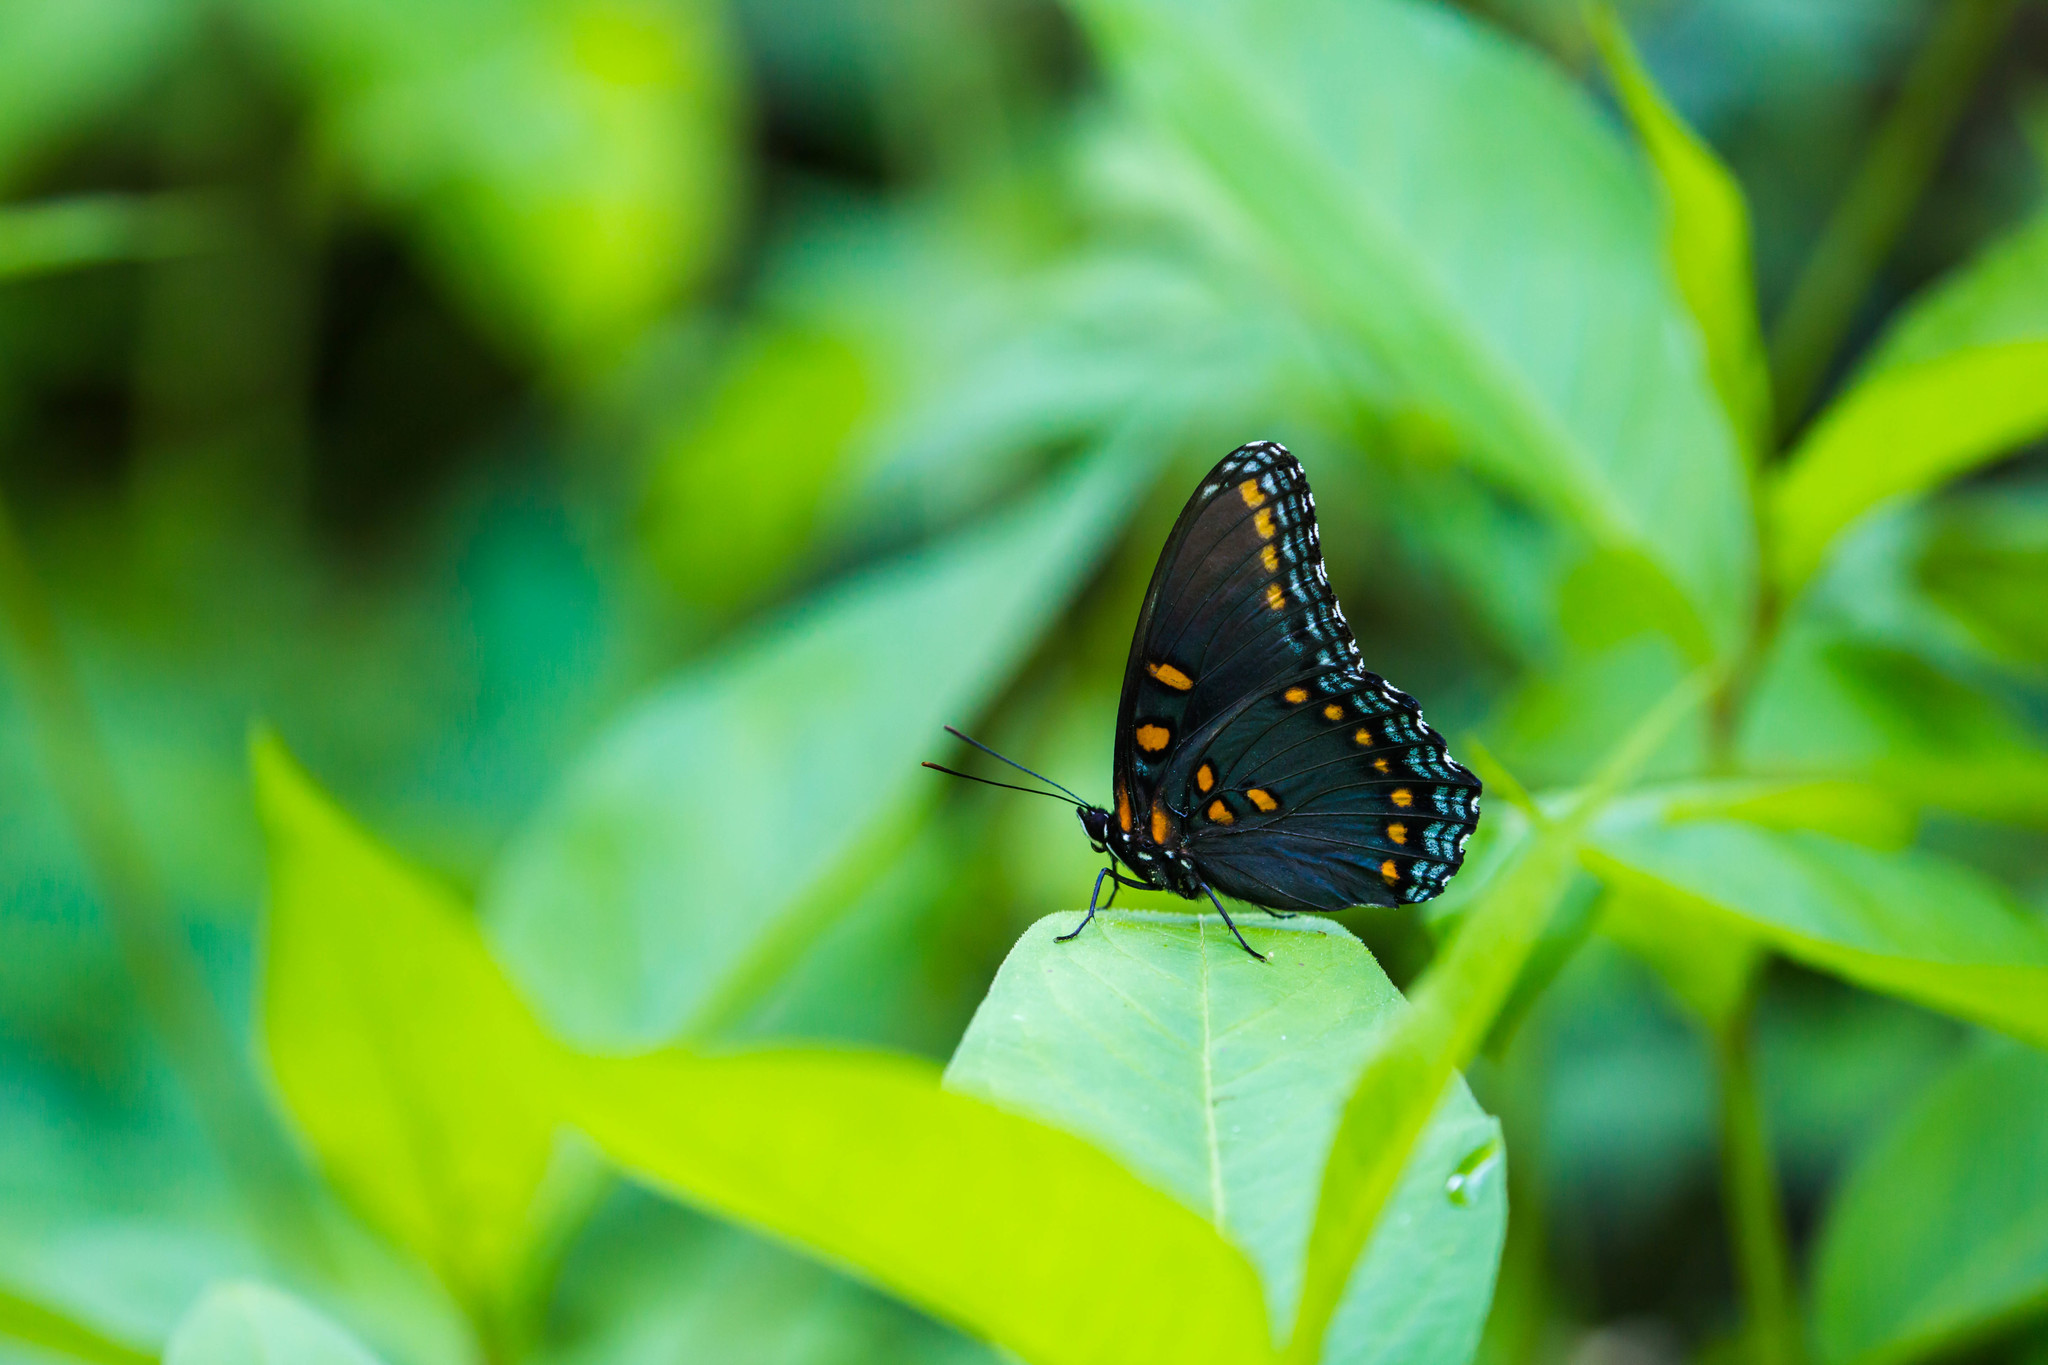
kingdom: Animalia
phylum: Arthropoda
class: Insecta
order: Lepidoptera
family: Nymphalidae
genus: Limenitis
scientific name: Limenitis astyanax
